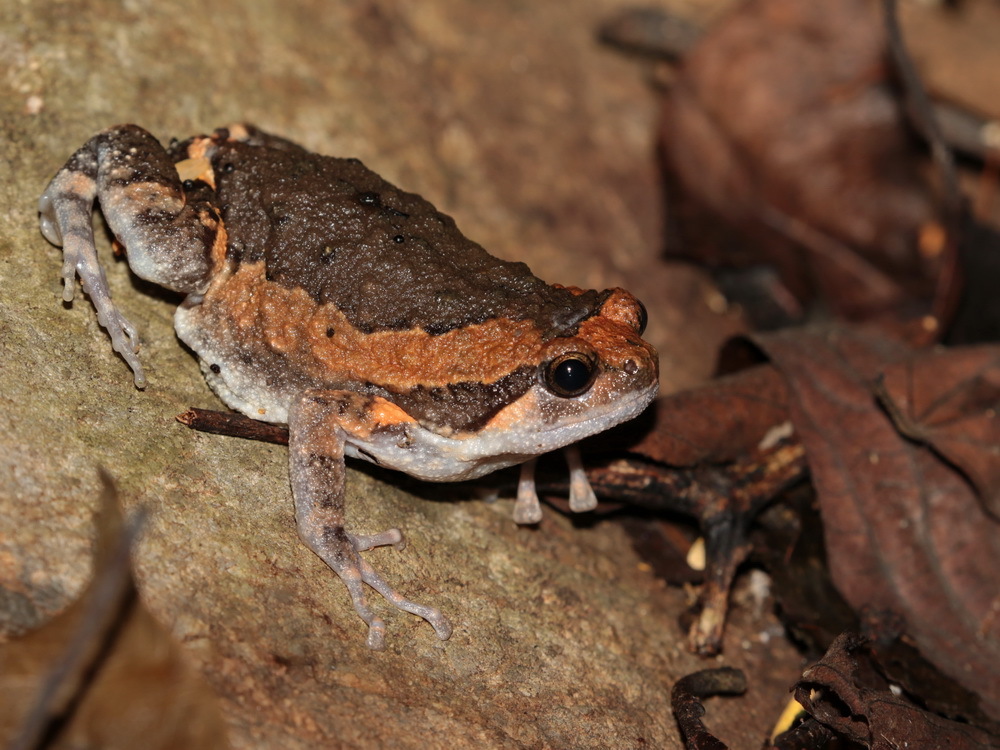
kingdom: Animalia
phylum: Chordata
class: Amphibia
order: Anura
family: Microhylidae
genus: Kaloula
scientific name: Kaloula pulchra
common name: Common,banded bullfrog
